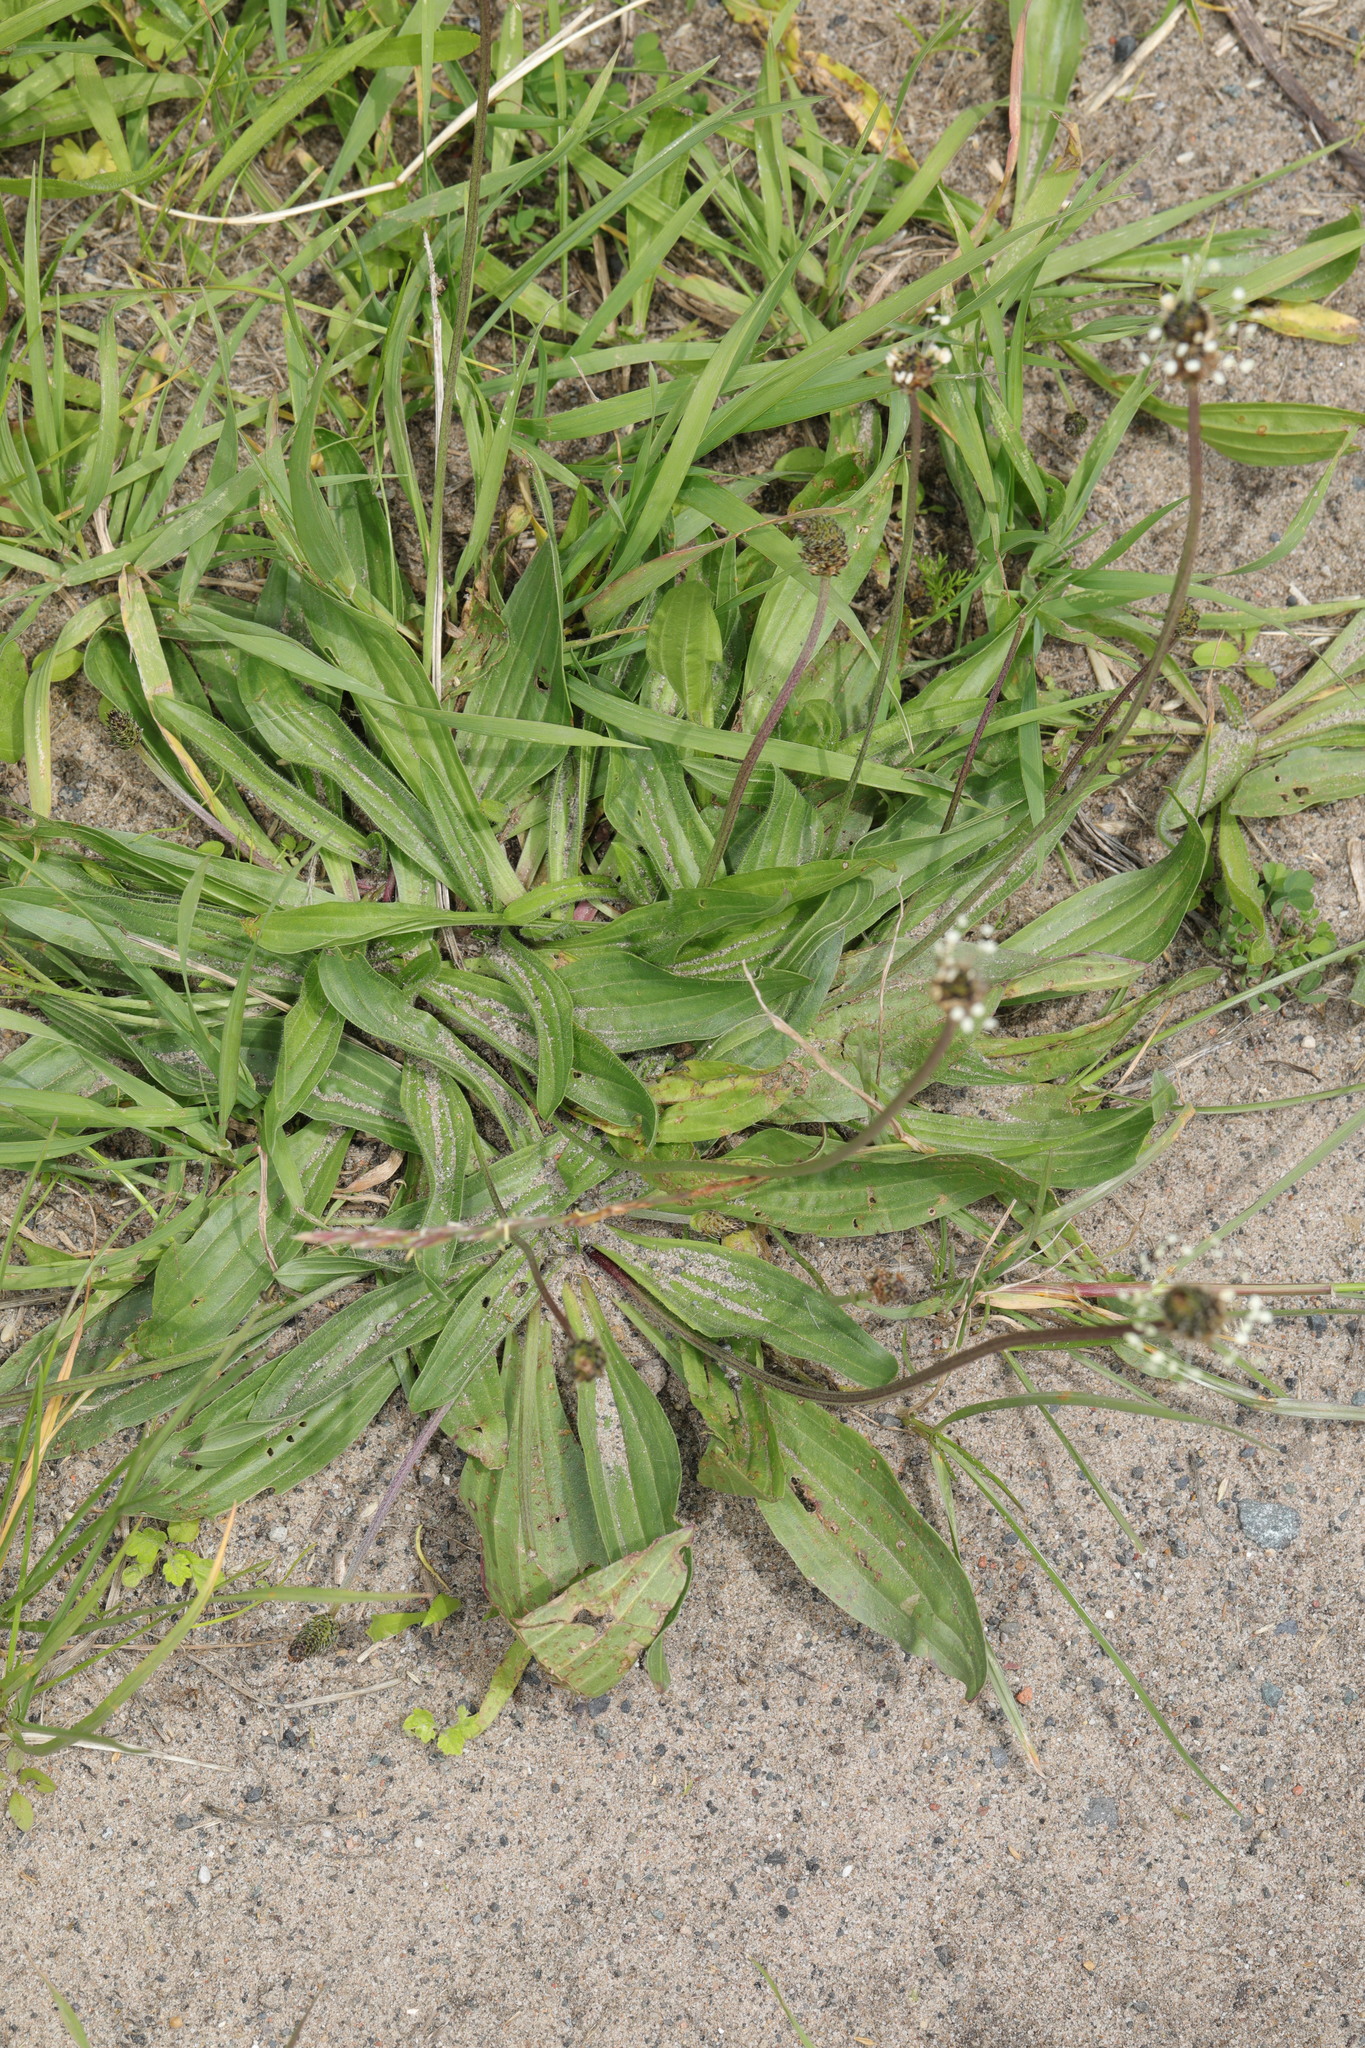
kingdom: Plantae
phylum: Tracheophyta
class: Magnoliopsida
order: Lamiales
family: Plantaginaceae
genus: Plantago
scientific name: Plantago lanceolata
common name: Ribwort plantain
